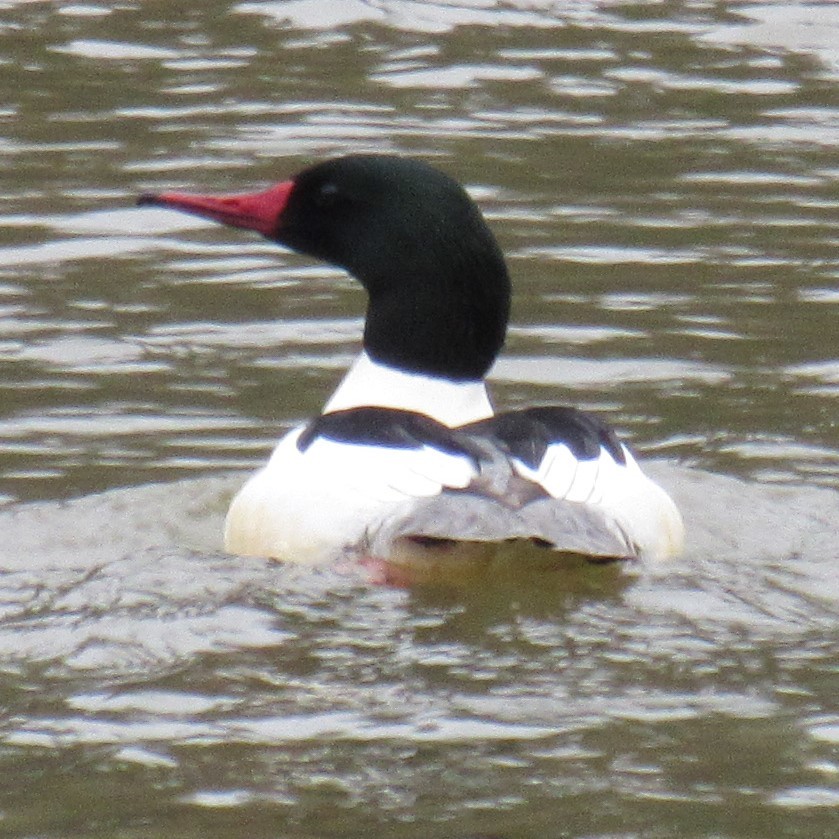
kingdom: Animalia
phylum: Chordata
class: Aves
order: Anseriformes
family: Anatidae
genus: Mergus
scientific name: Mergus merganser
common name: Common merganser
